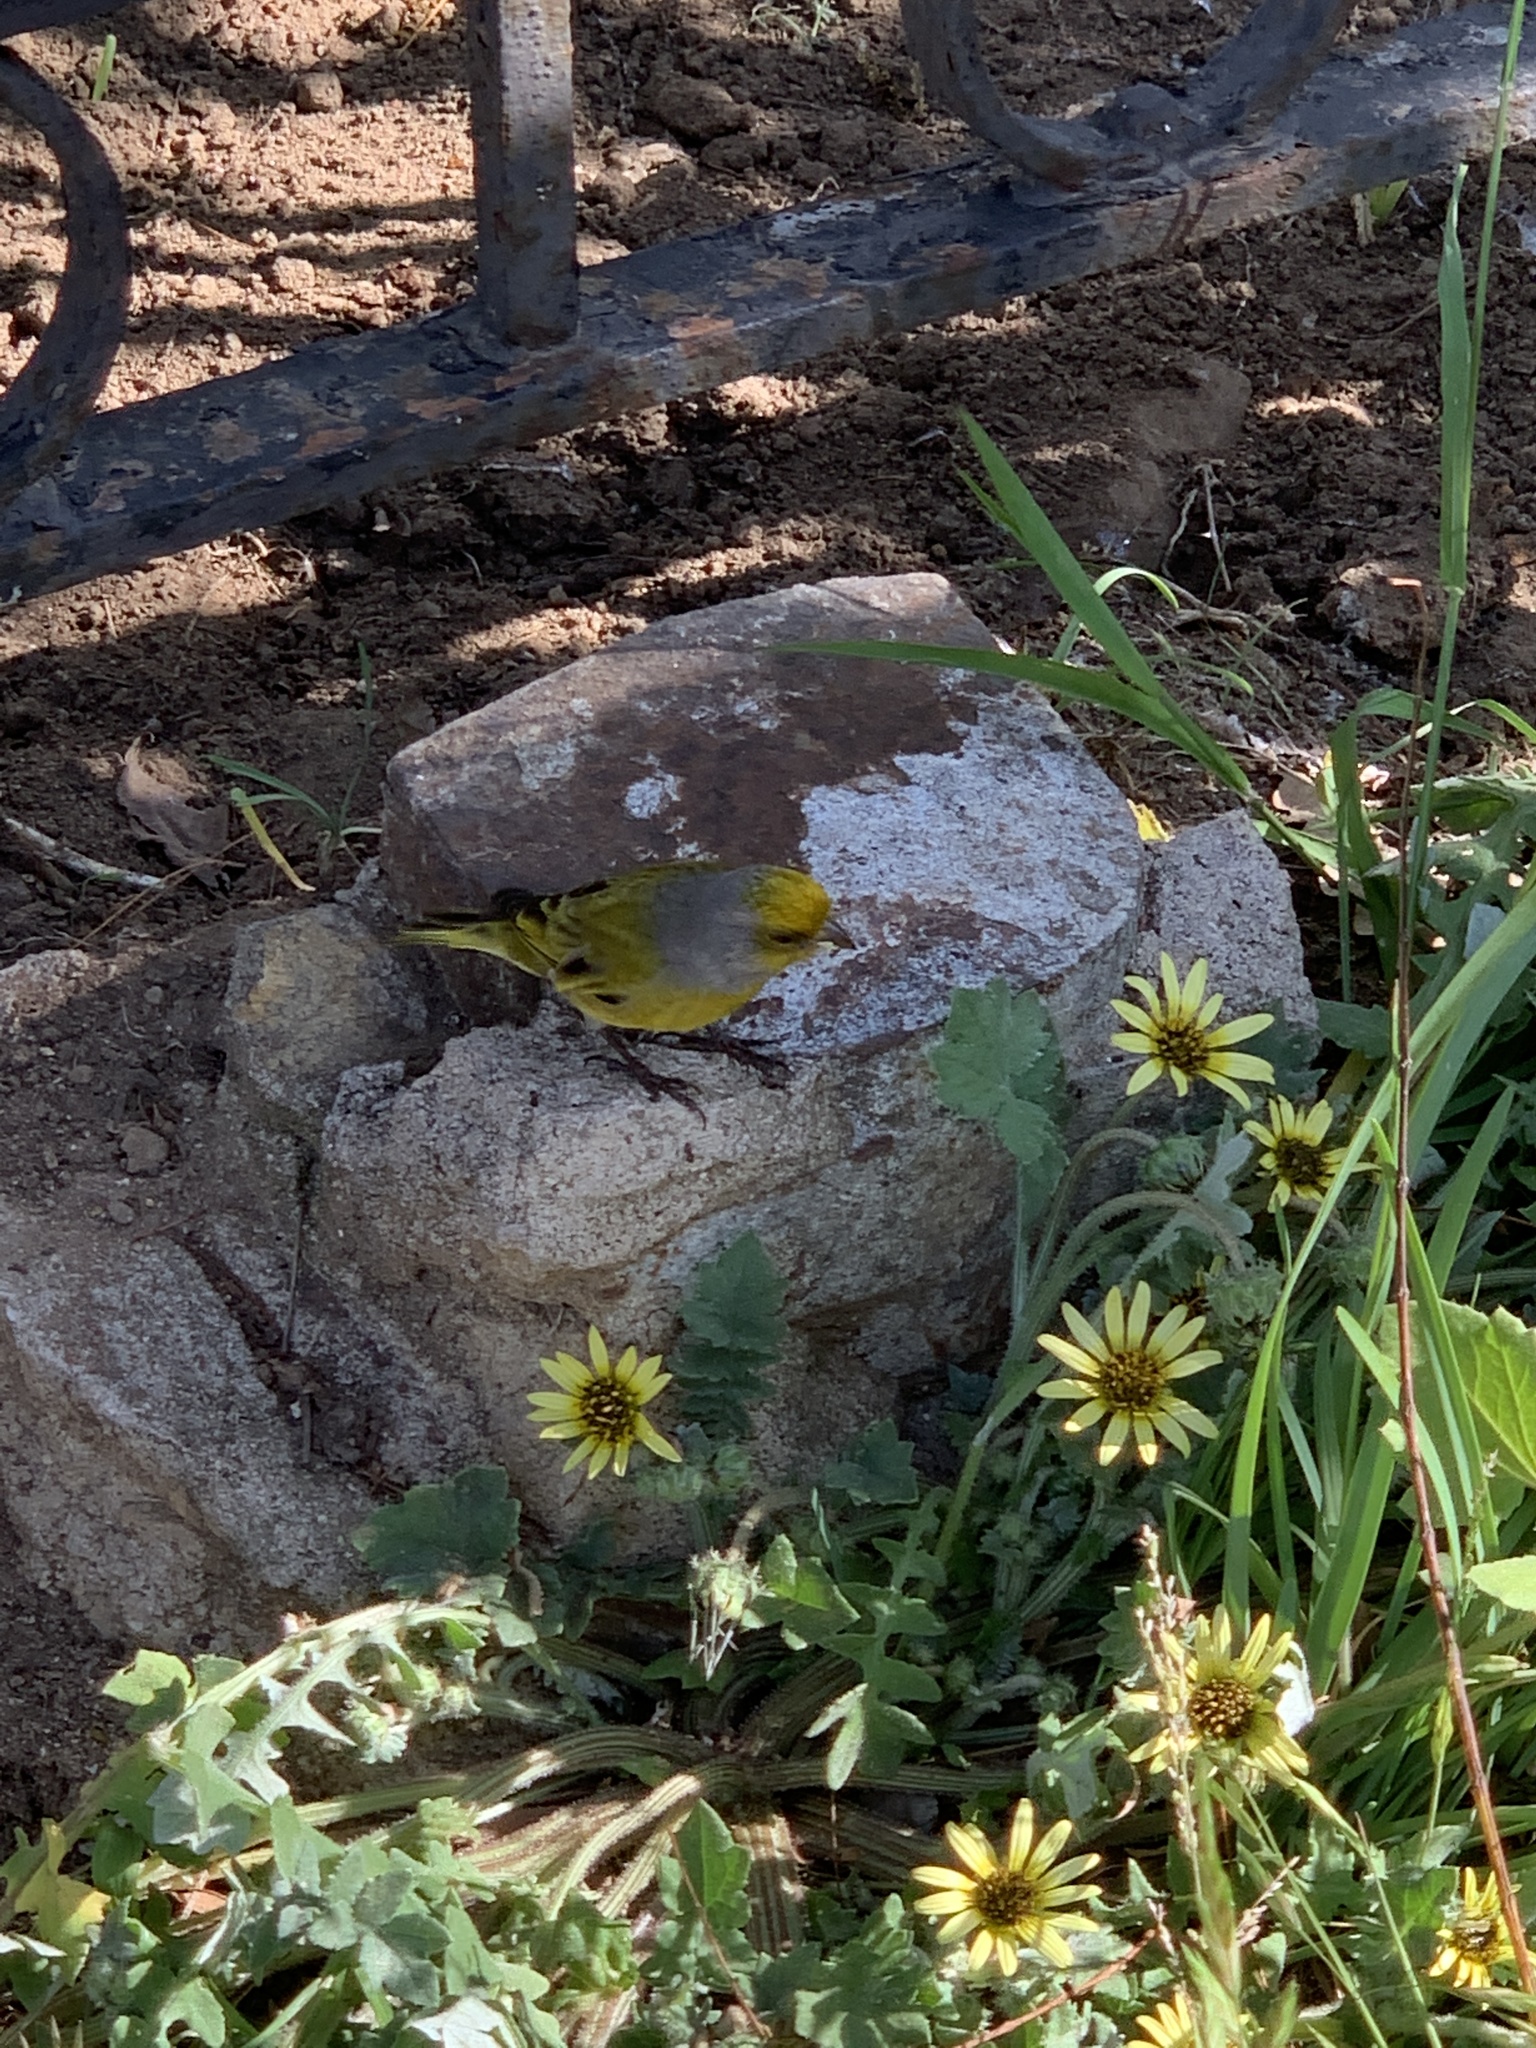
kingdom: Animalia
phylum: Chordata
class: Aves
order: Passeriformes
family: Fringillidae
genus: Serinus
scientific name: Serinus canicollis
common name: Cape canary
